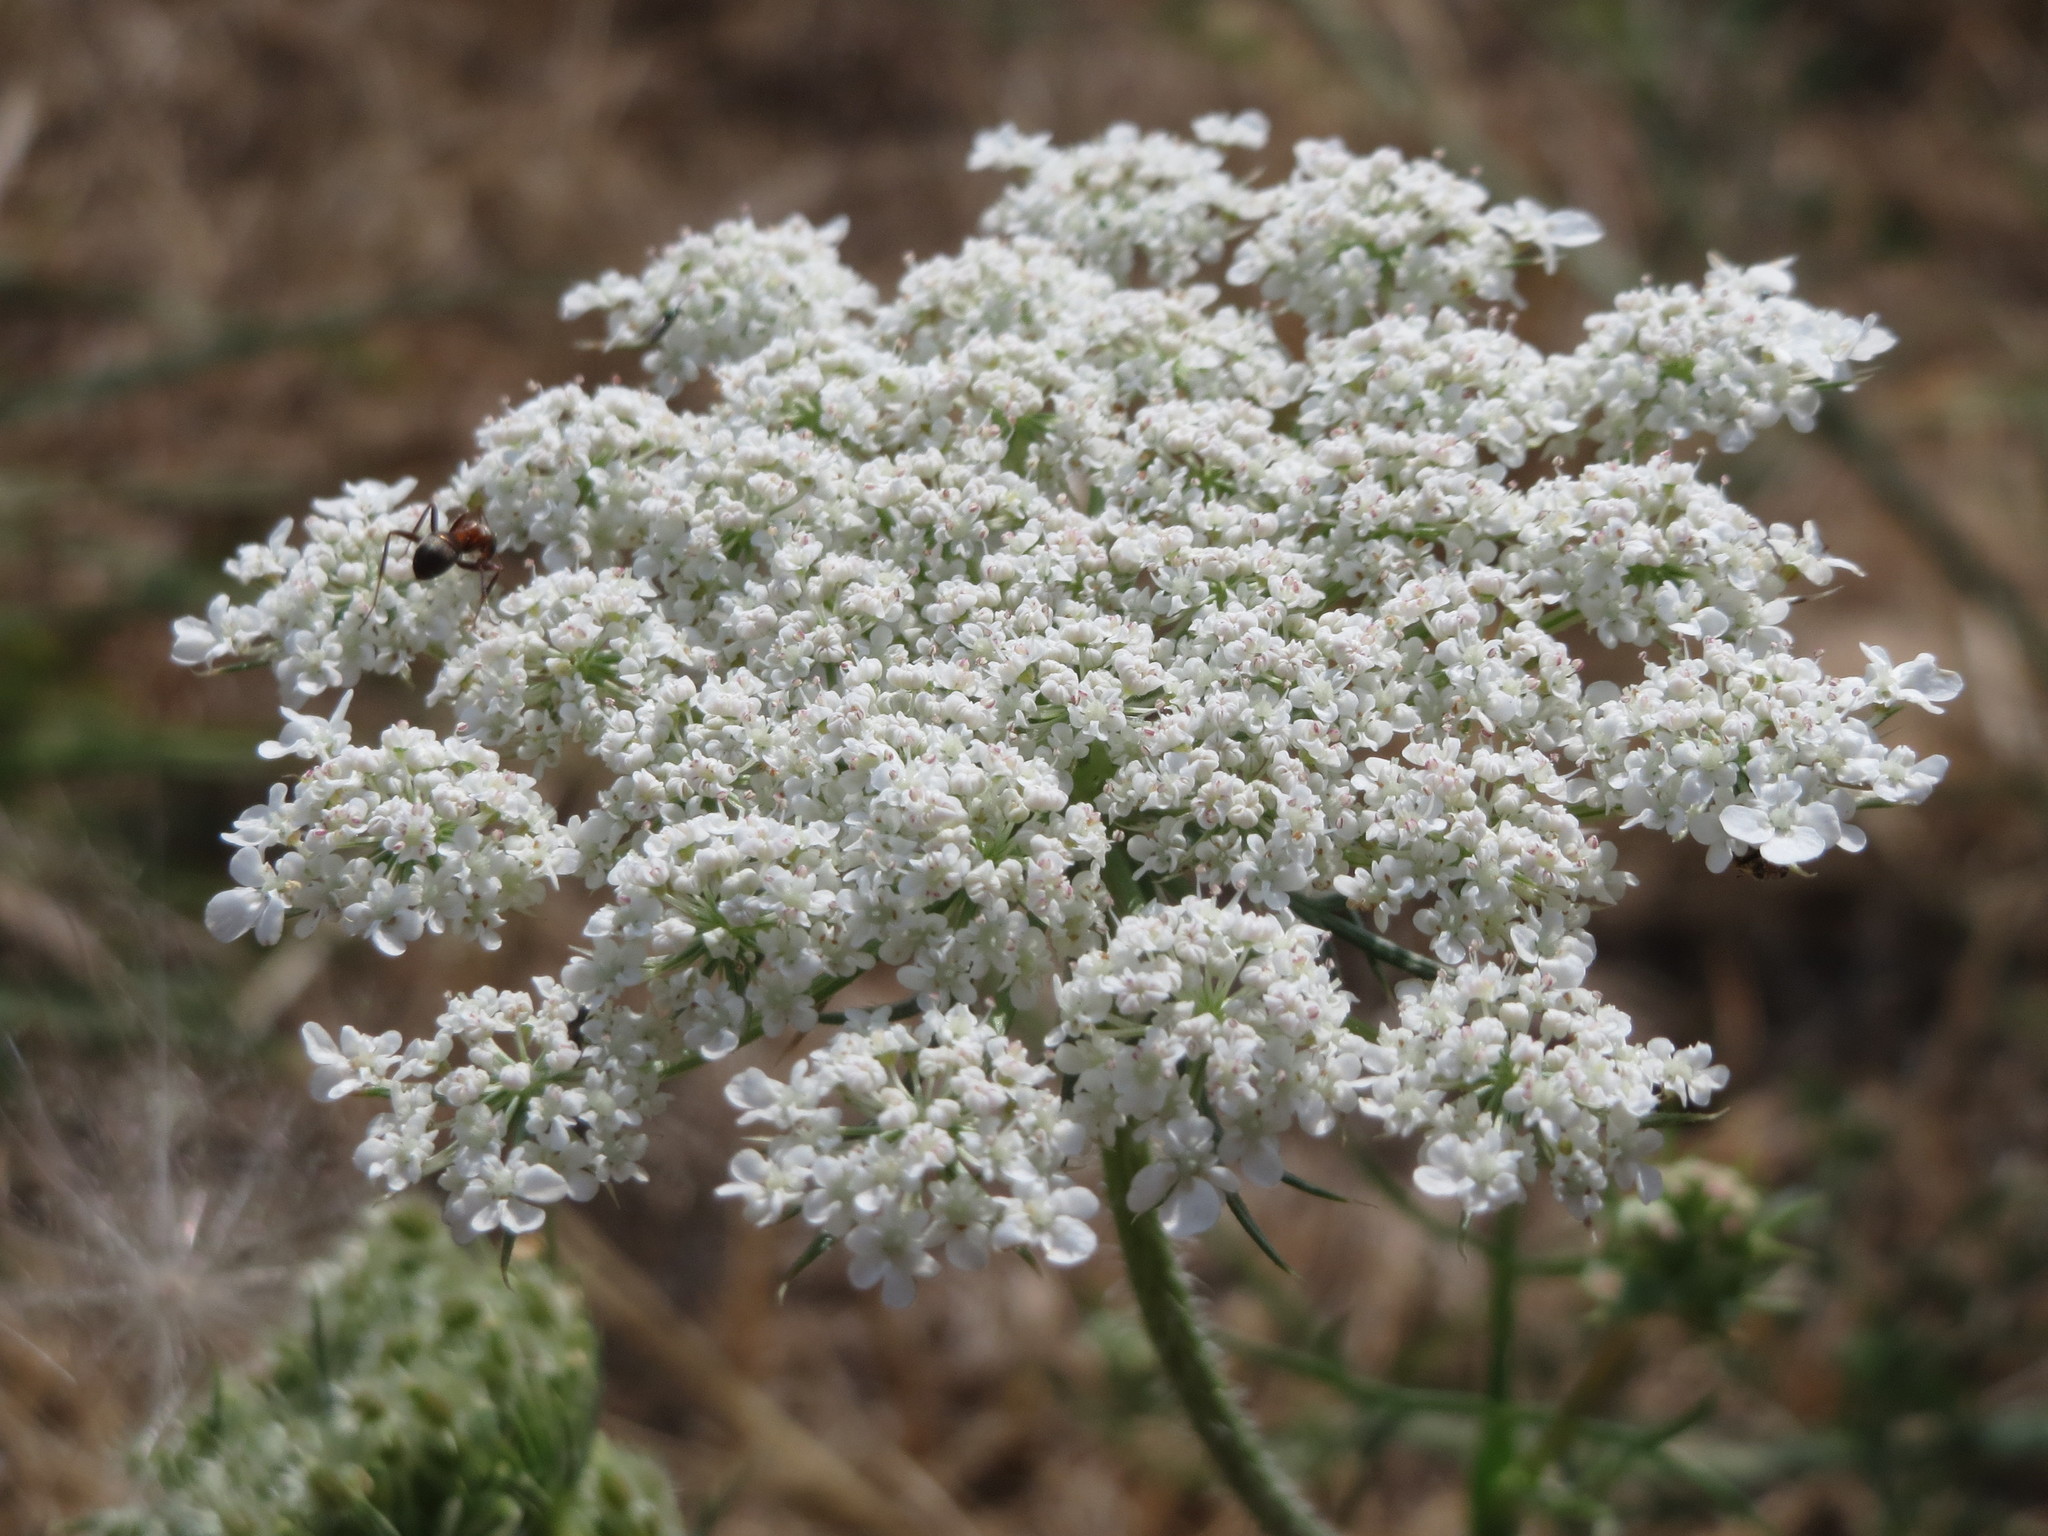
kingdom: Plantae
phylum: Tracheophyta
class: Magnoliopsida
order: Apiales
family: Apiaceae
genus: Daucus
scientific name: Daucus carota
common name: Wild carrot
